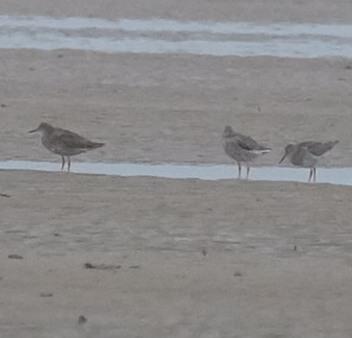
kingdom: Animalia
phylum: Chordata
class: Aves
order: Charadriiformes
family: Scolopacidae
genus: Tringa
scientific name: Tringa totanus
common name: Common redshank
